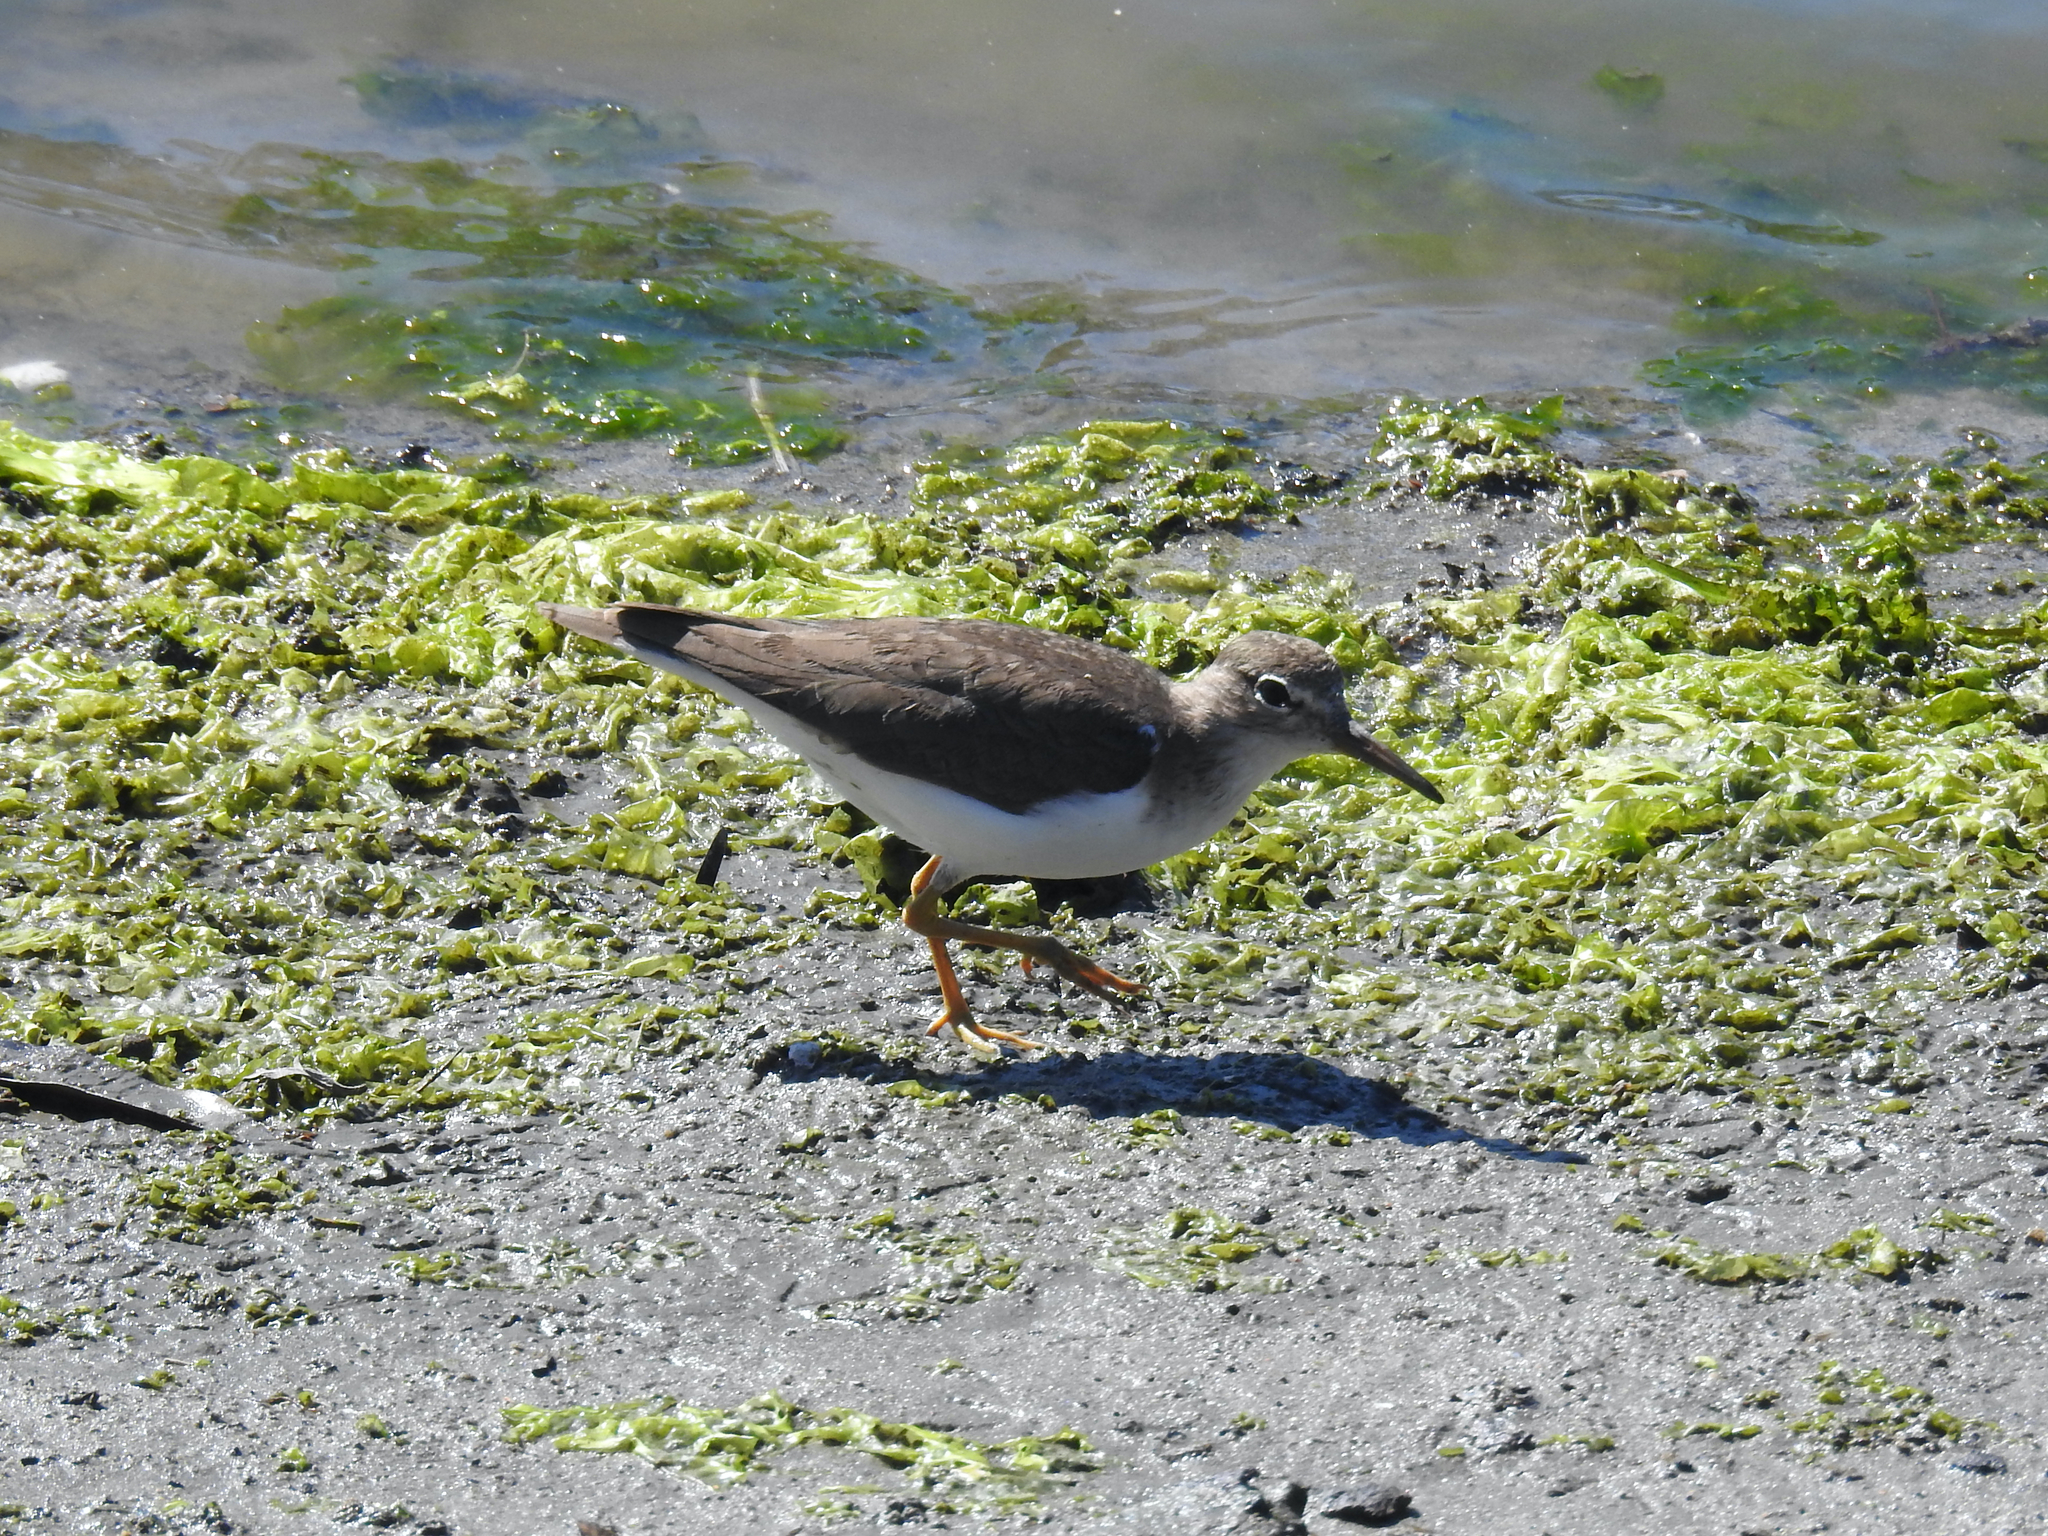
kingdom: Animalia
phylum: Chordata
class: Aves
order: Charadriiformes
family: Scolopacidae
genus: Actitis
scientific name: Actitis macularius
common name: Spotted sandpiper
